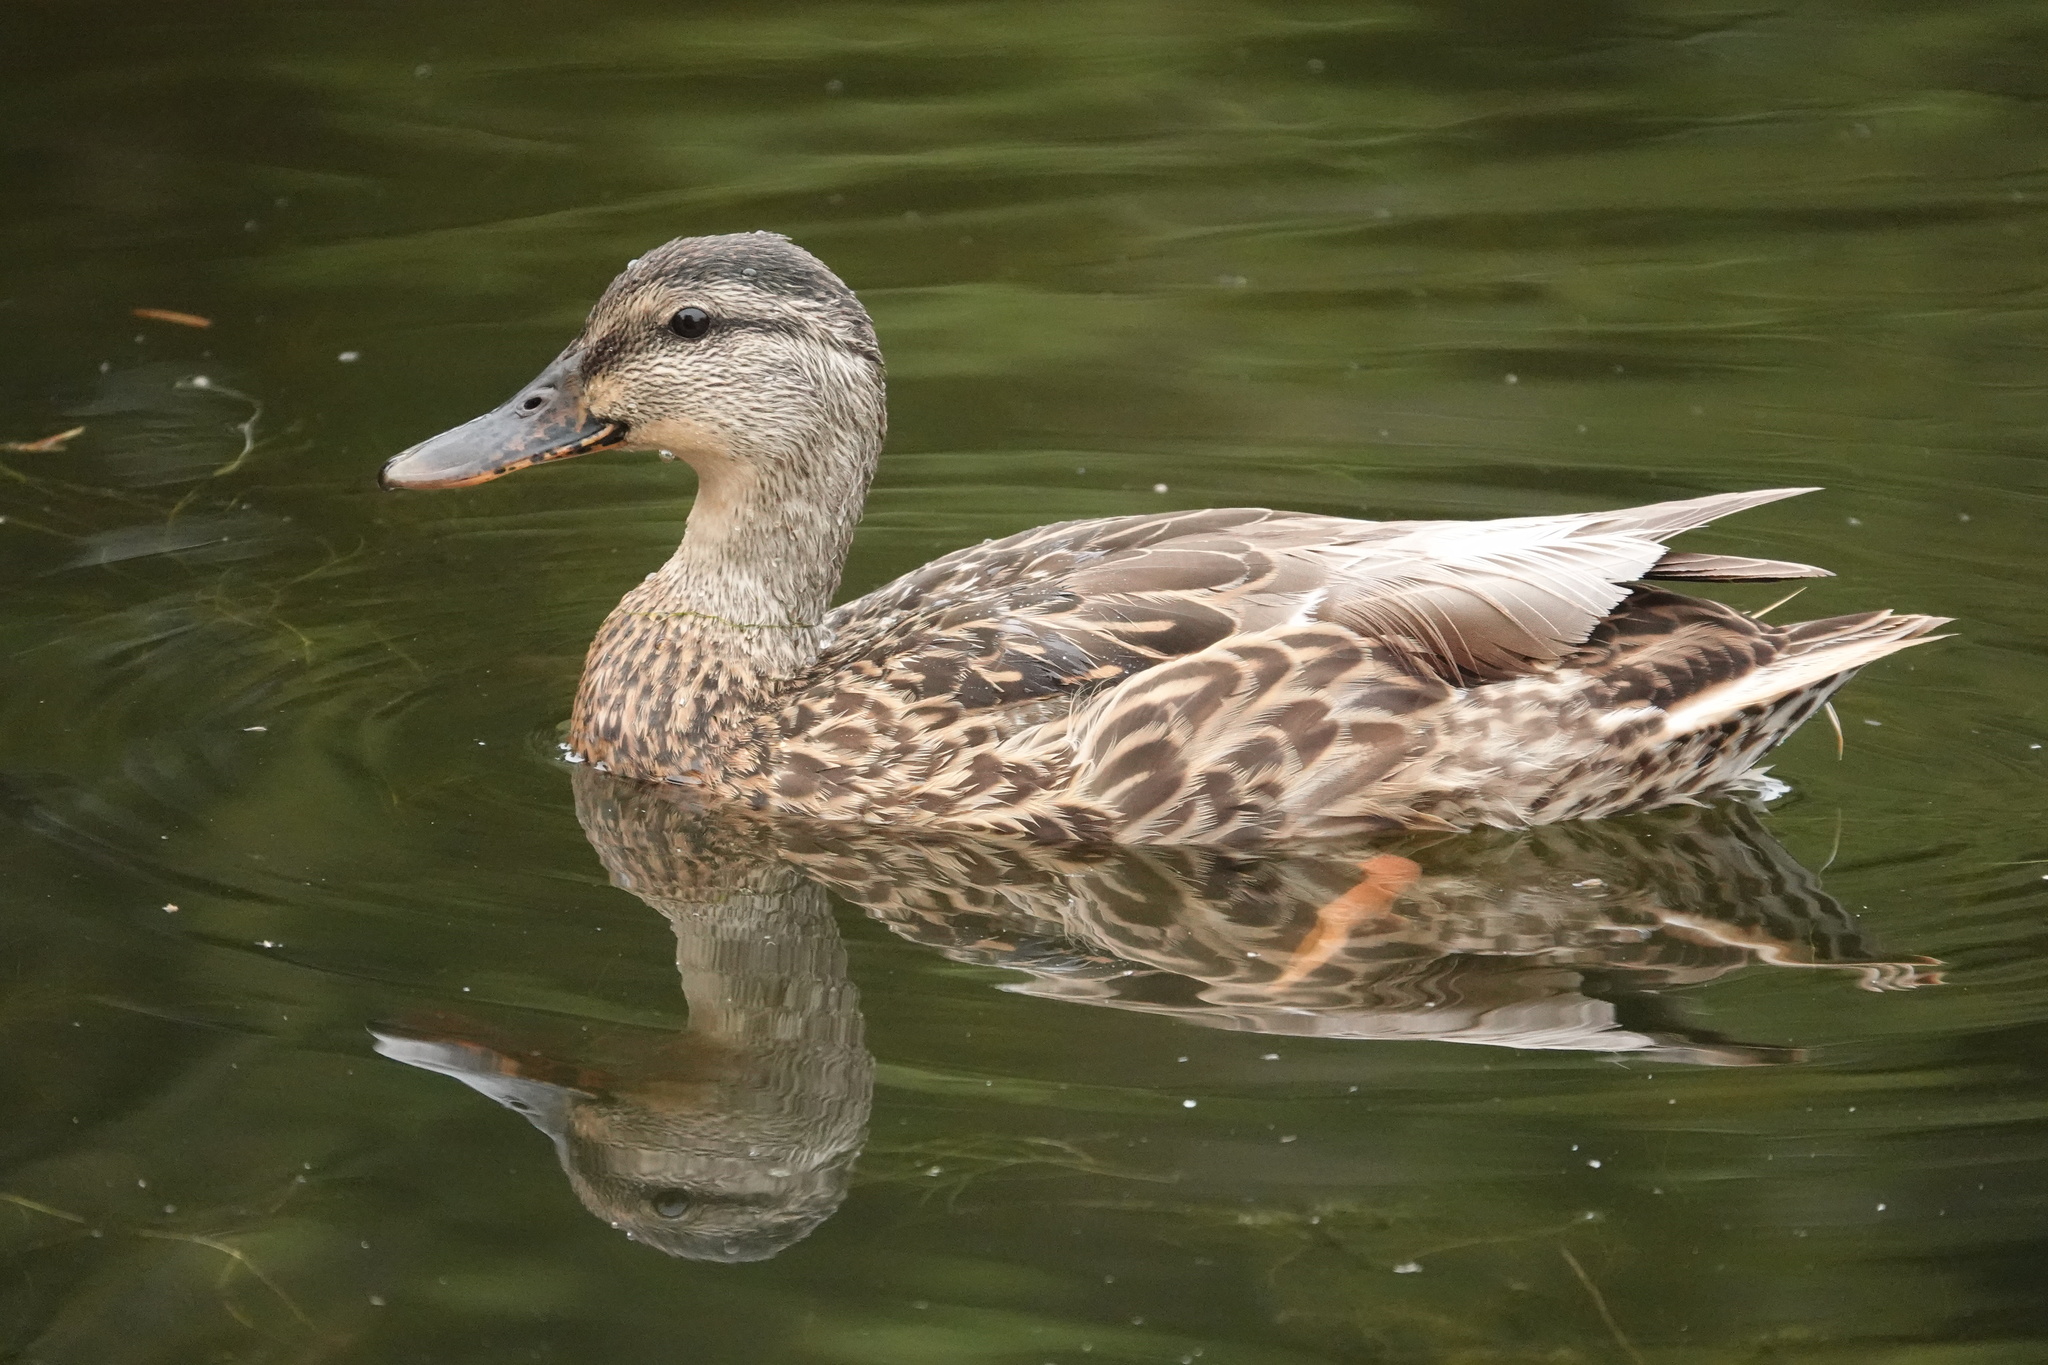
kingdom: Animalia
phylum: Chordata
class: Aves
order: Anseriformes
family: Anatidae
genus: Anas
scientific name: Anas platyrhynchos
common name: Mallard
